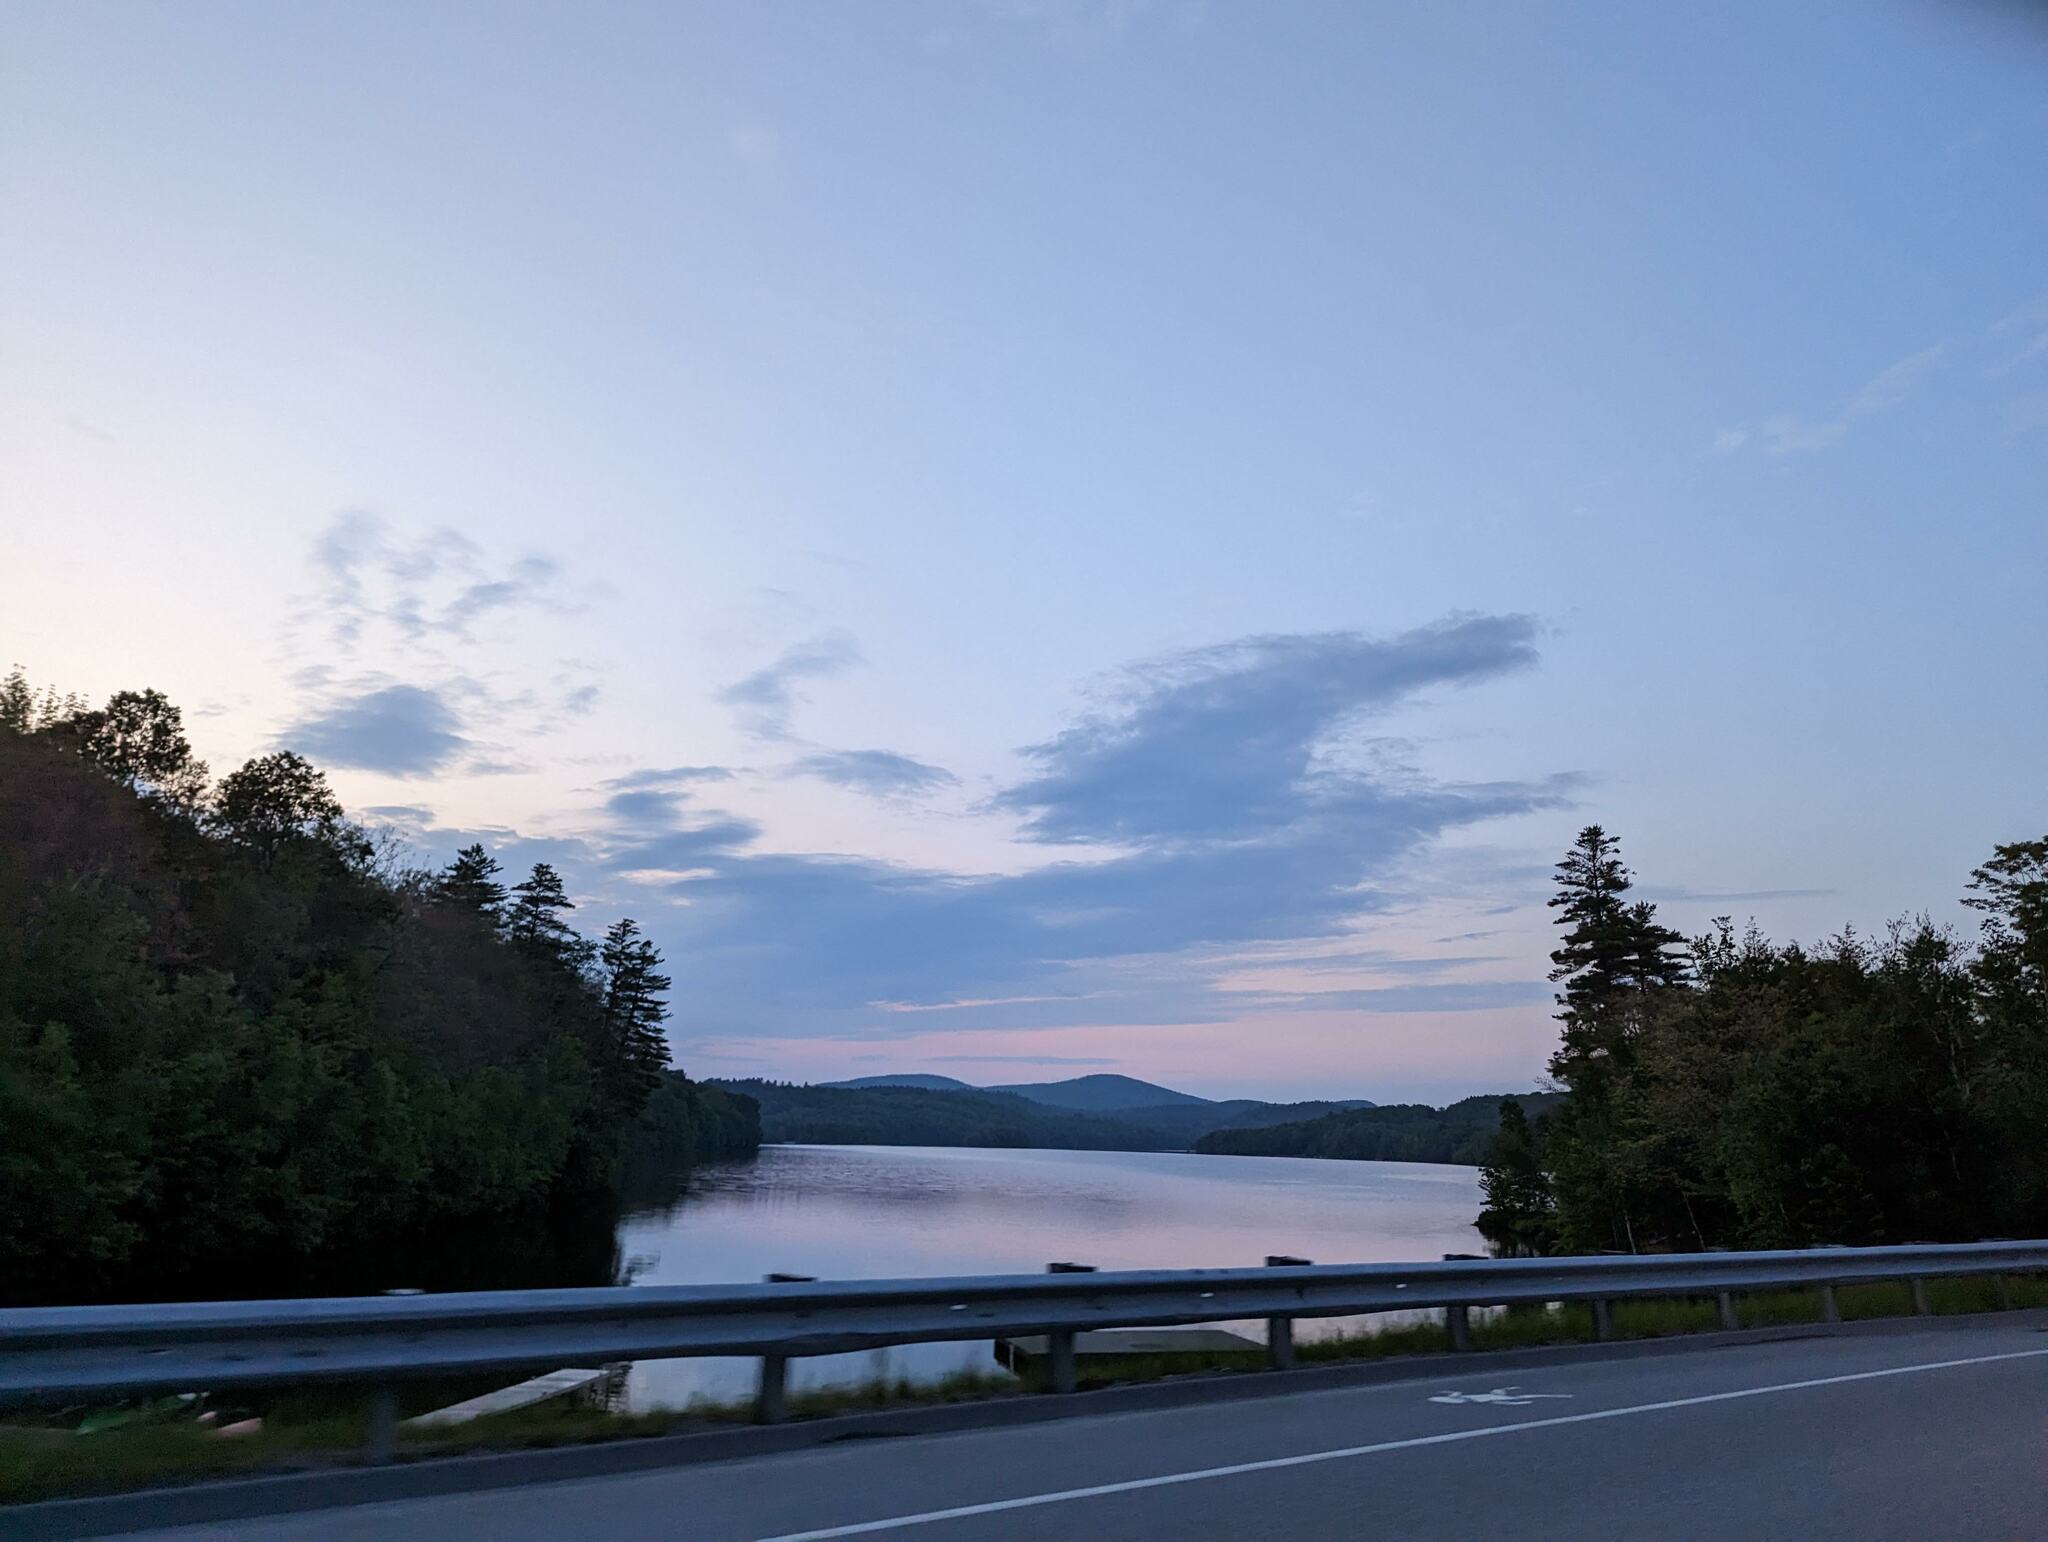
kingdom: Plantae
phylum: Tracheophyta
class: Pinopsida
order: Pinales
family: Pinaceae
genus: Pinus
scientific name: Pinus strobus
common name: Weymouth pine
